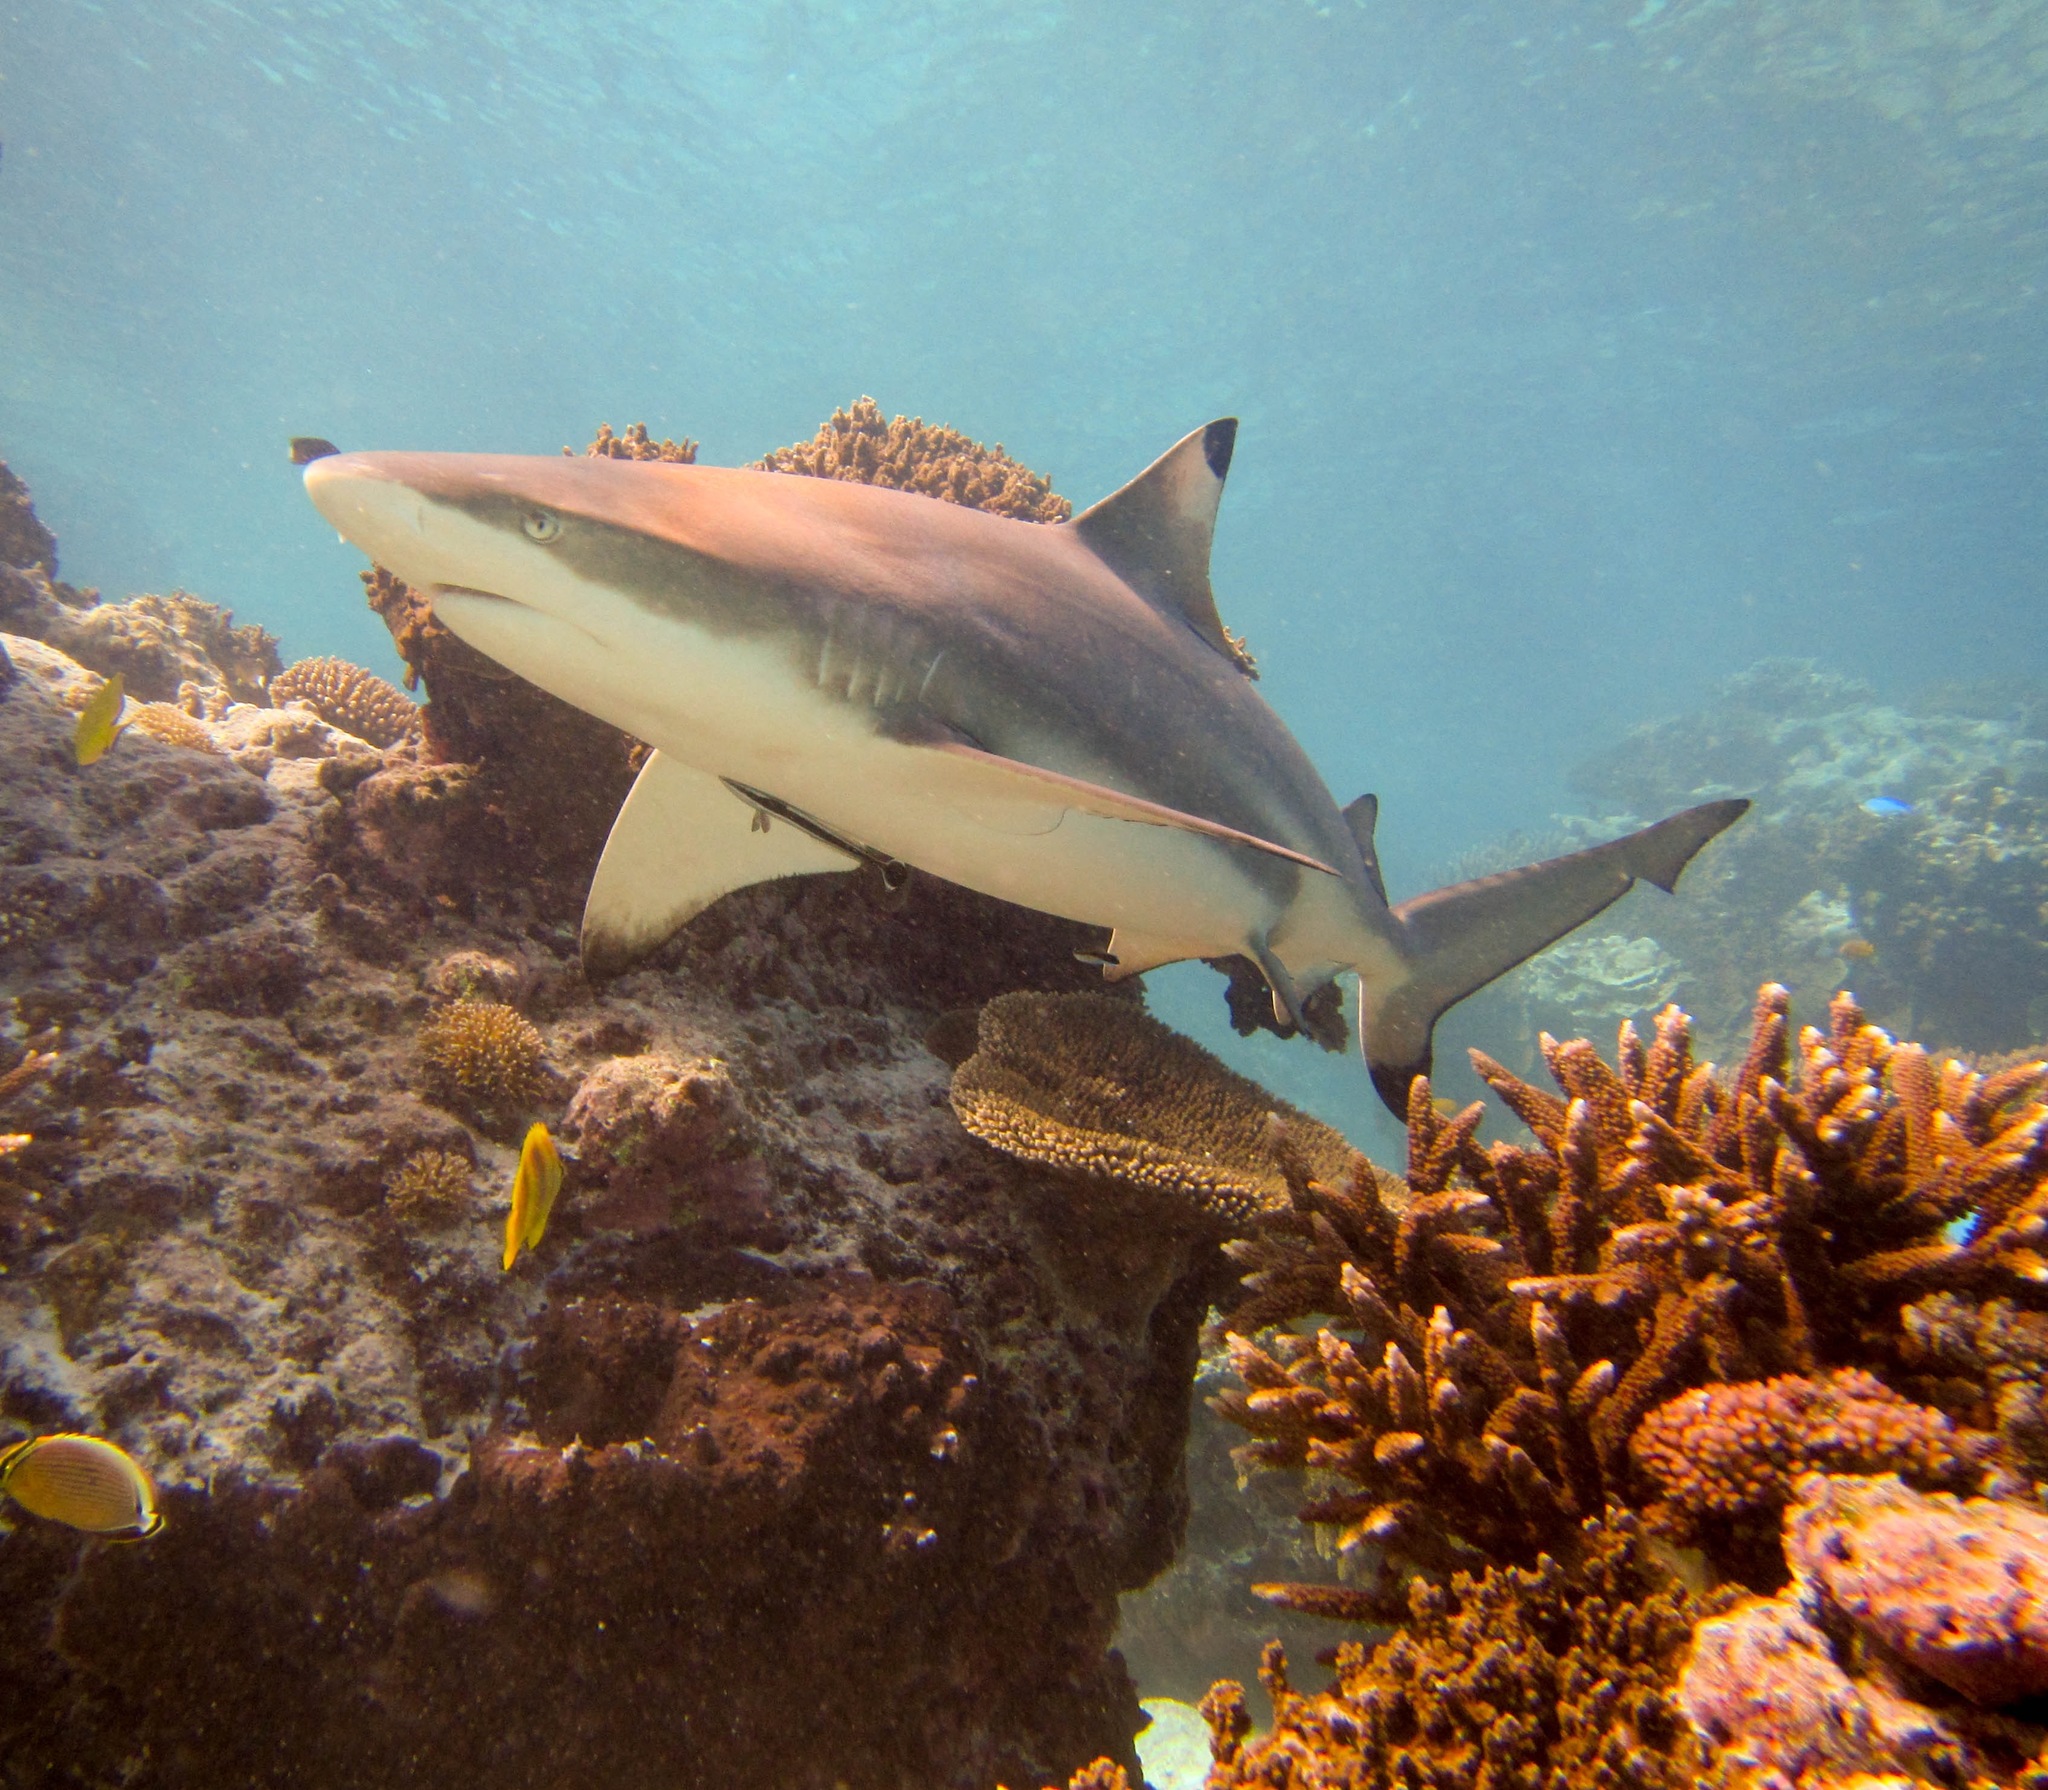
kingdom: Animalia
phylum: Chordata
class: Elasmobranchii
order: Carcharhiniformes
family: Carcharhinidae
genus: Carcharhinus
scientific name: Carcharhinus melanopterus
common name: Blacktip reef shark
